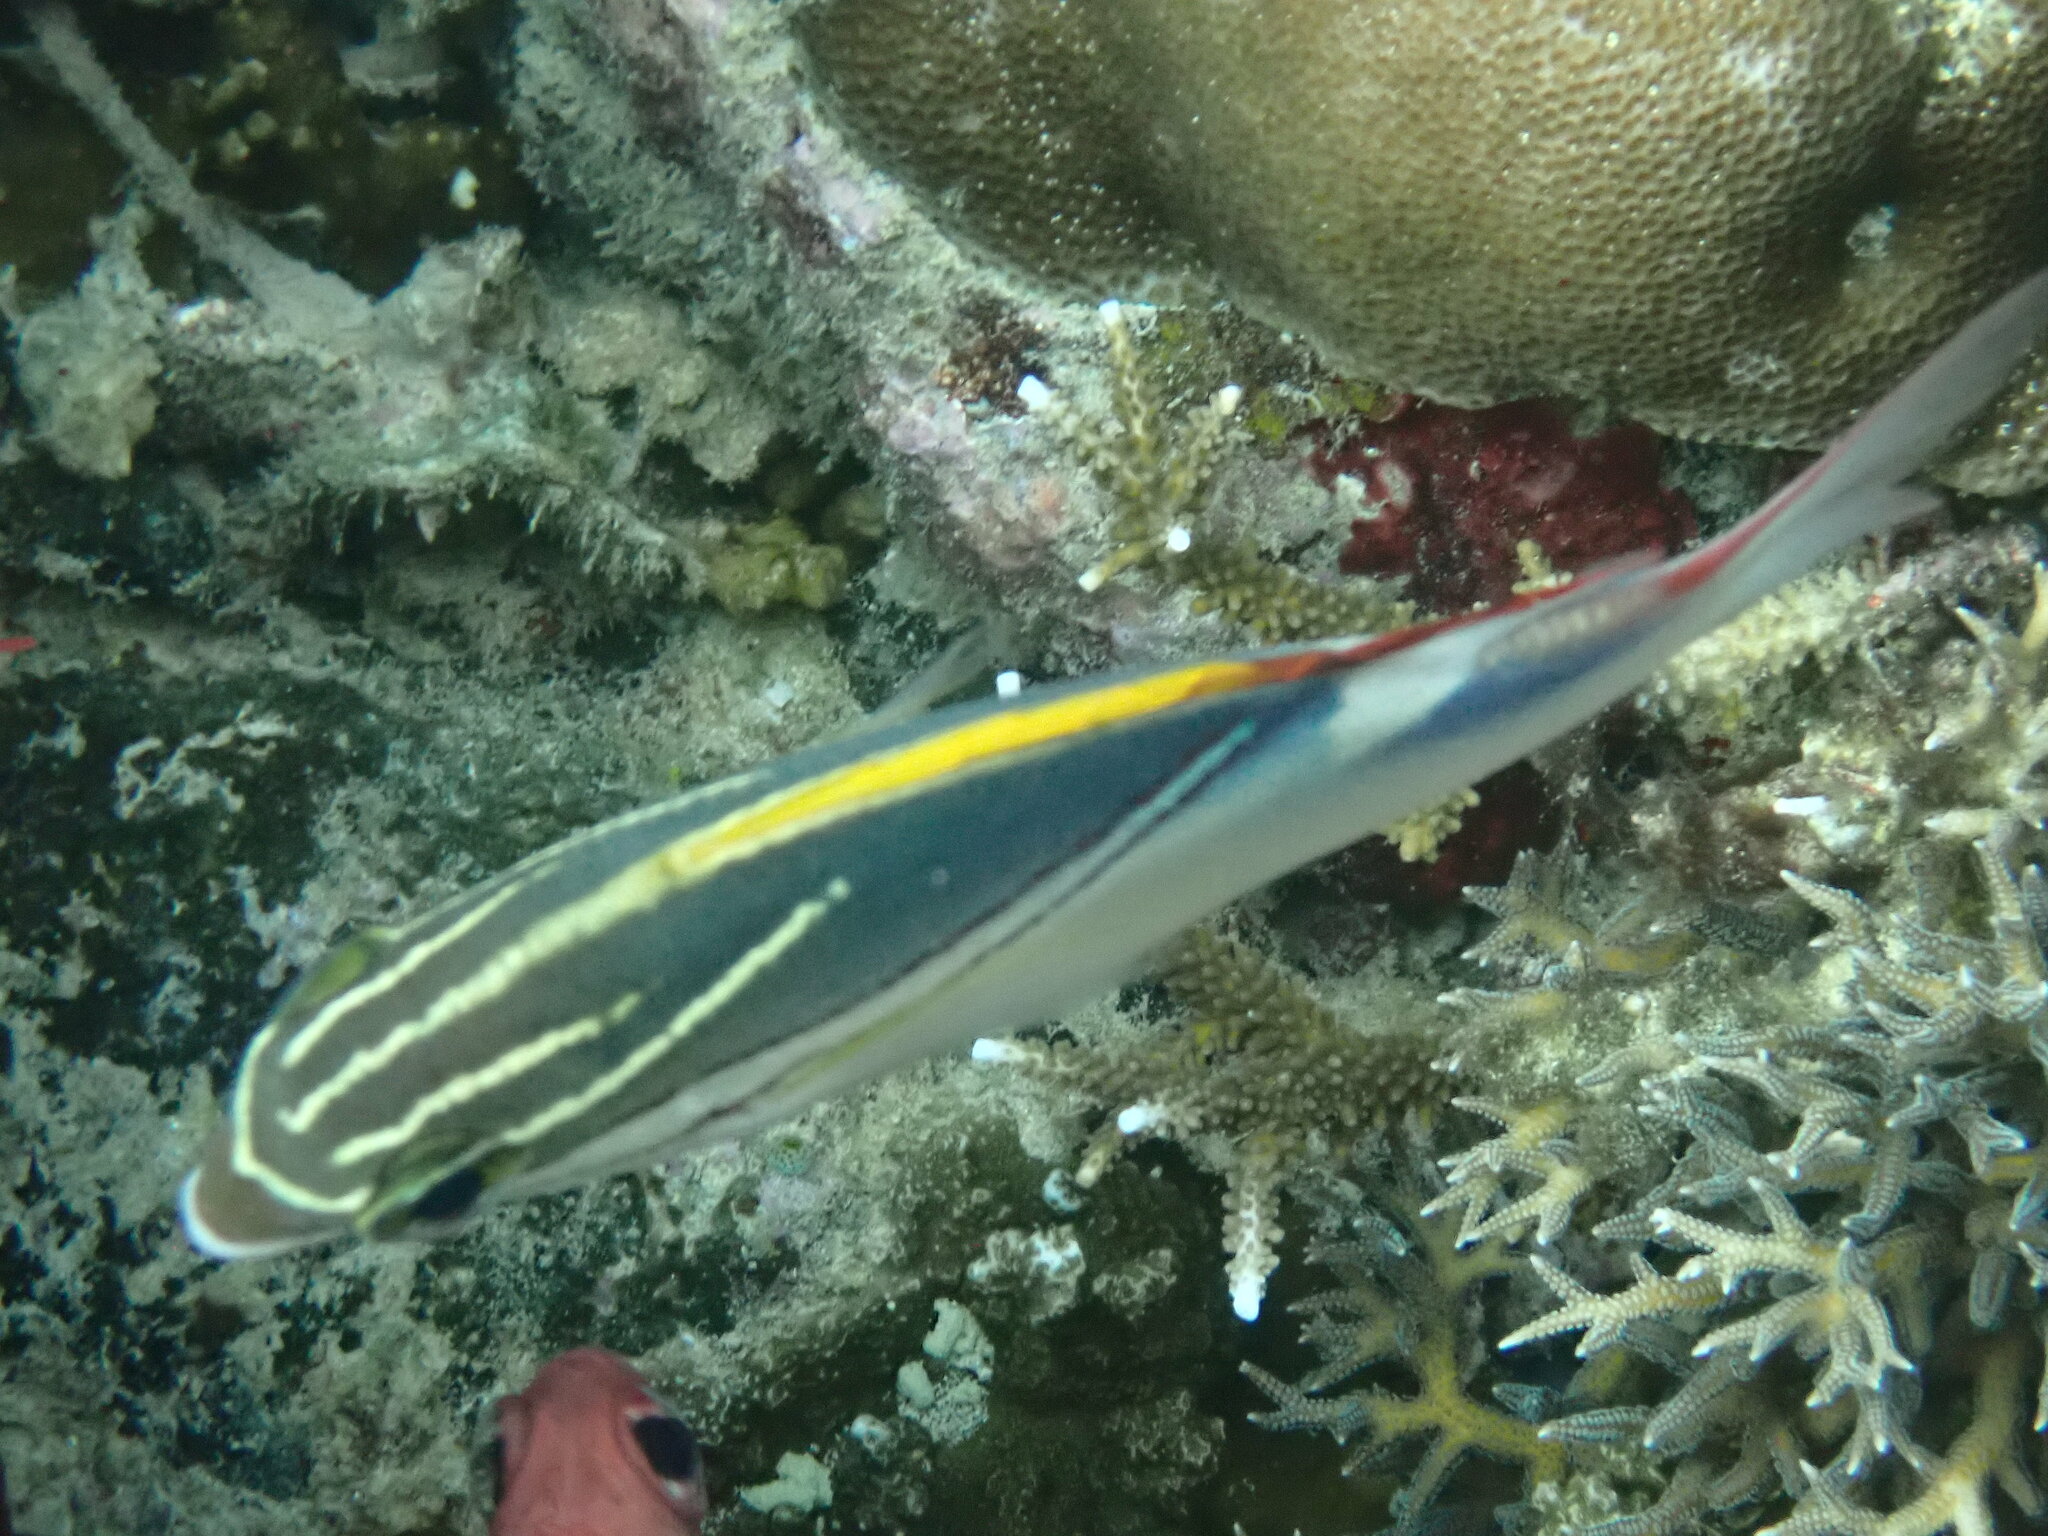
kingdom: Animalia
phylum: Chordata
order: Perciformes
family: Nemipteridae
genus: Scolopsis
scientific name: Scolopsis bilineata
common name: Two-lined monocle bream
